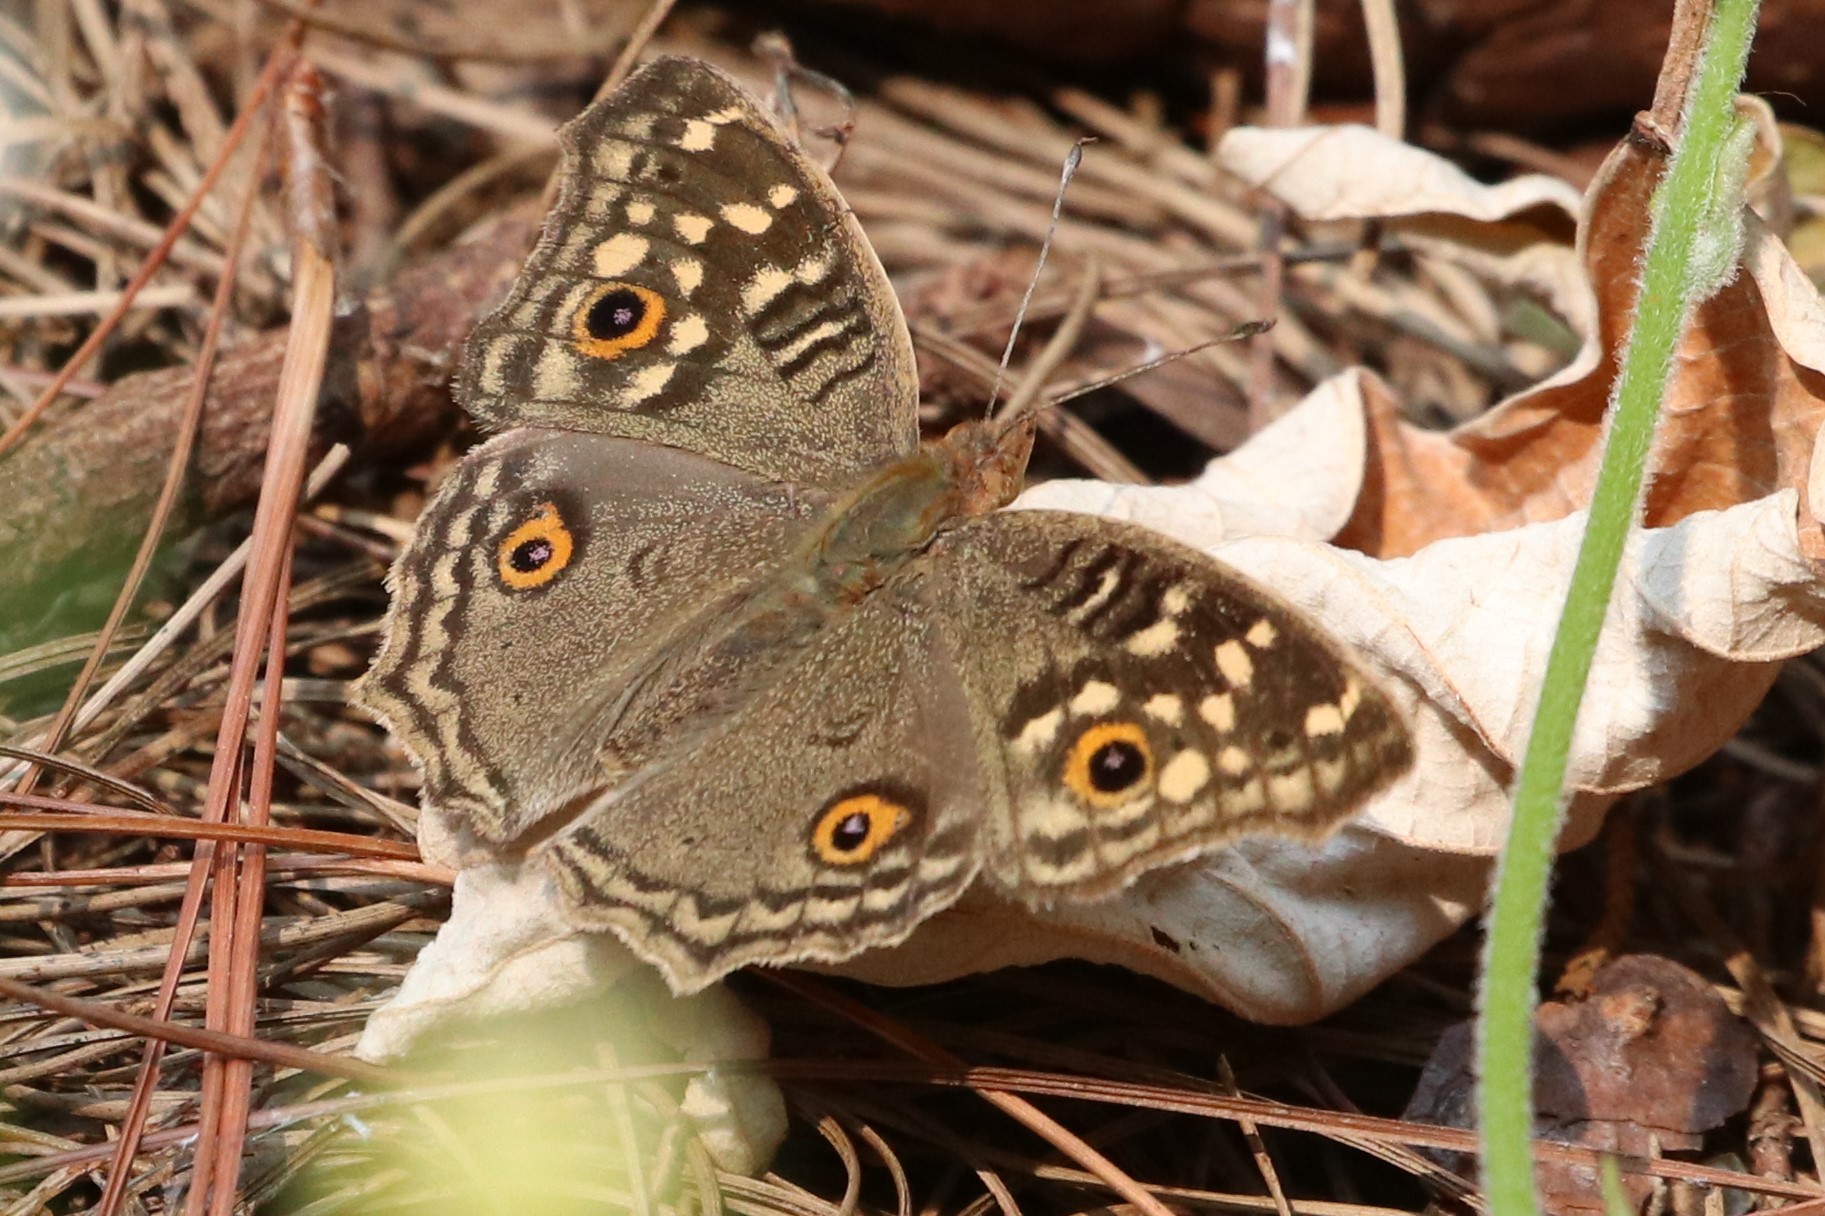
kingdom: Animalia
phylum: Arthropoda
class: Insecta
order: Lepidoptera
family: Nymphalidae
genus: Junonia
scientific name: Junonia lemonias
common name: Lemon pansy
